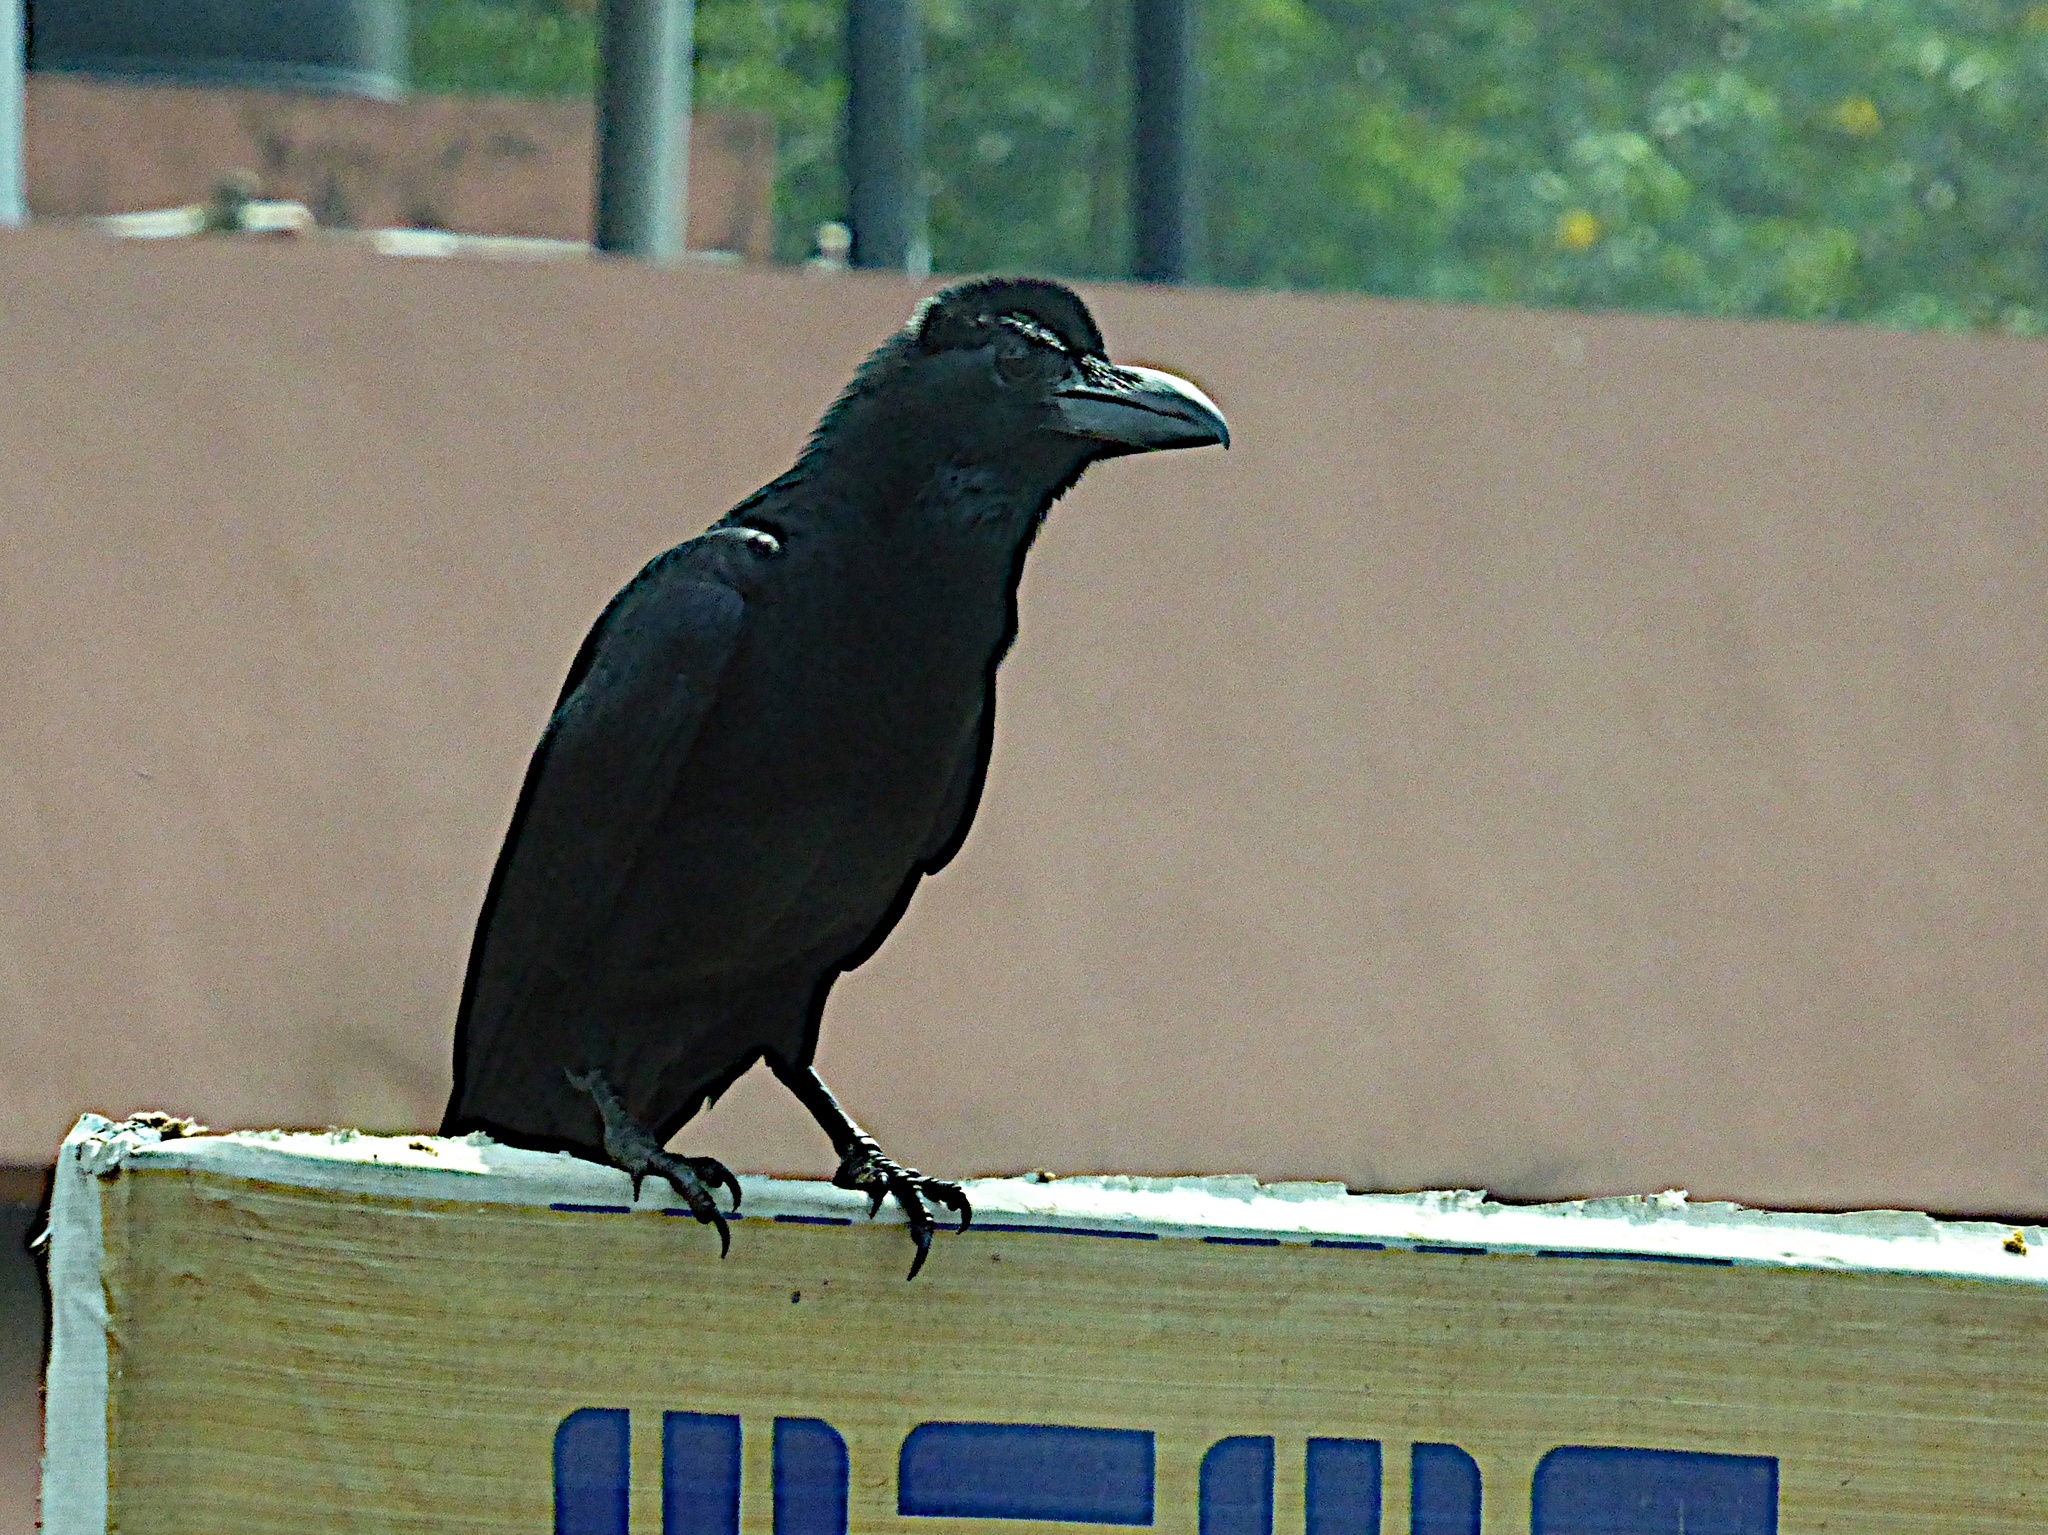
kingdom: Animalia
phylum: Chordata
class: Aves
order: Passeriformes
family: Corvidae
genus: Corvus
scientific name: Corvus macrorhynchos
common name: Large-billed crow
